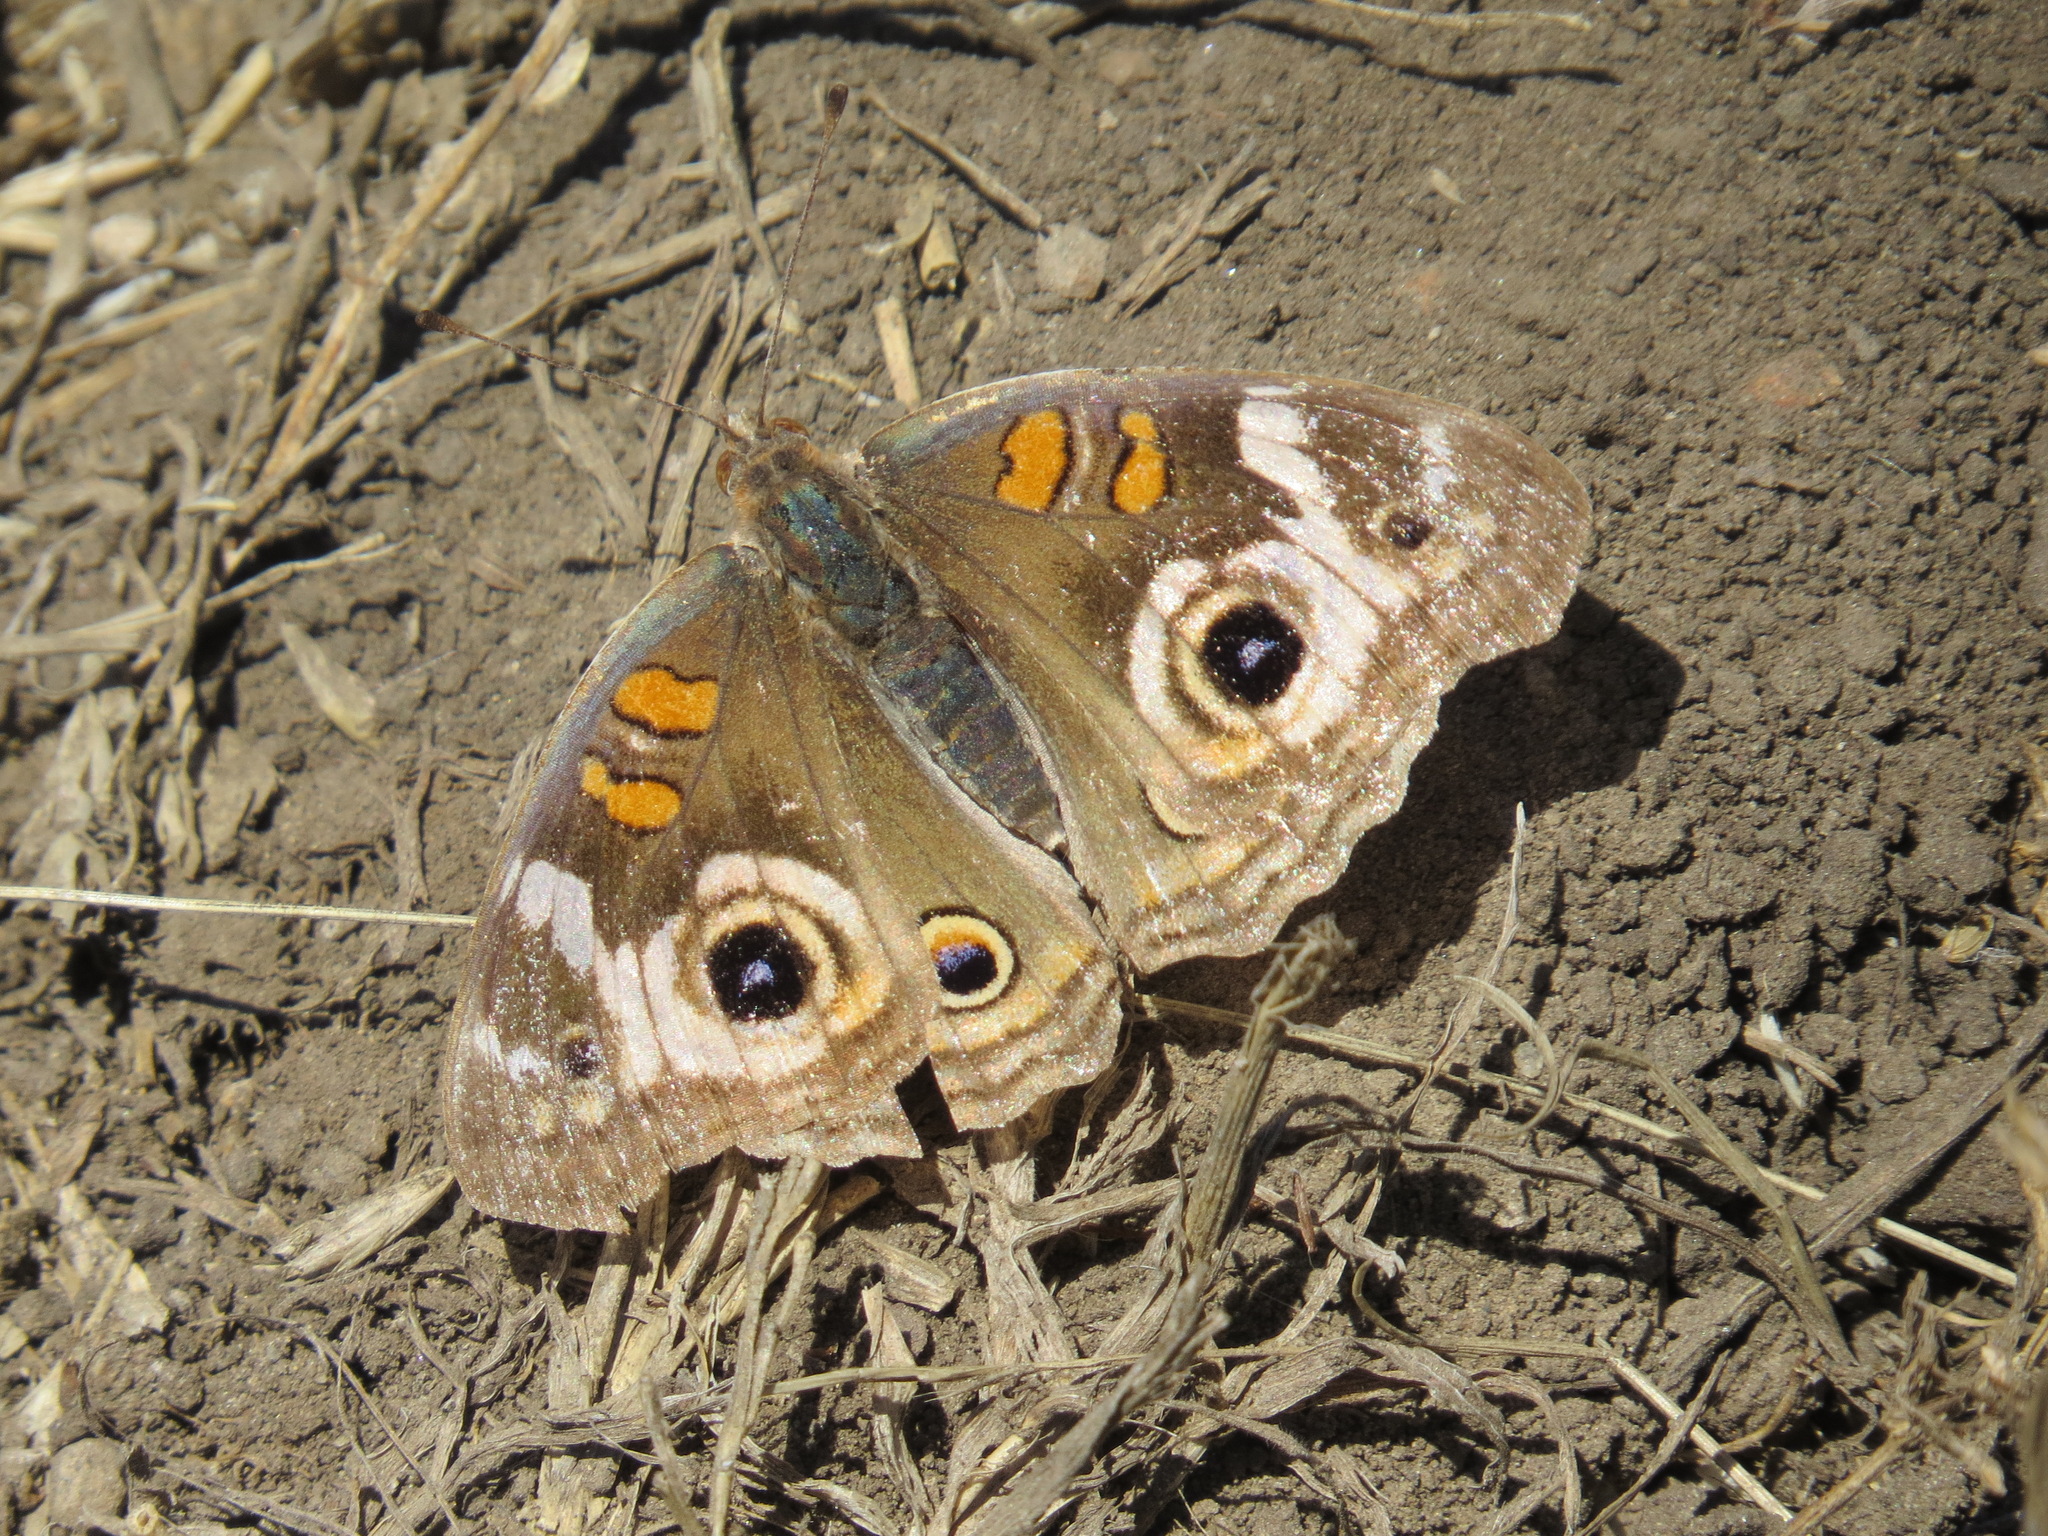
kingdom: Animalia
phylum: Arthropoda
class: Insecta
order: Lepidoptera
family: Nymphalidae
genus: Junonia
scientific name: Junonia grisea
